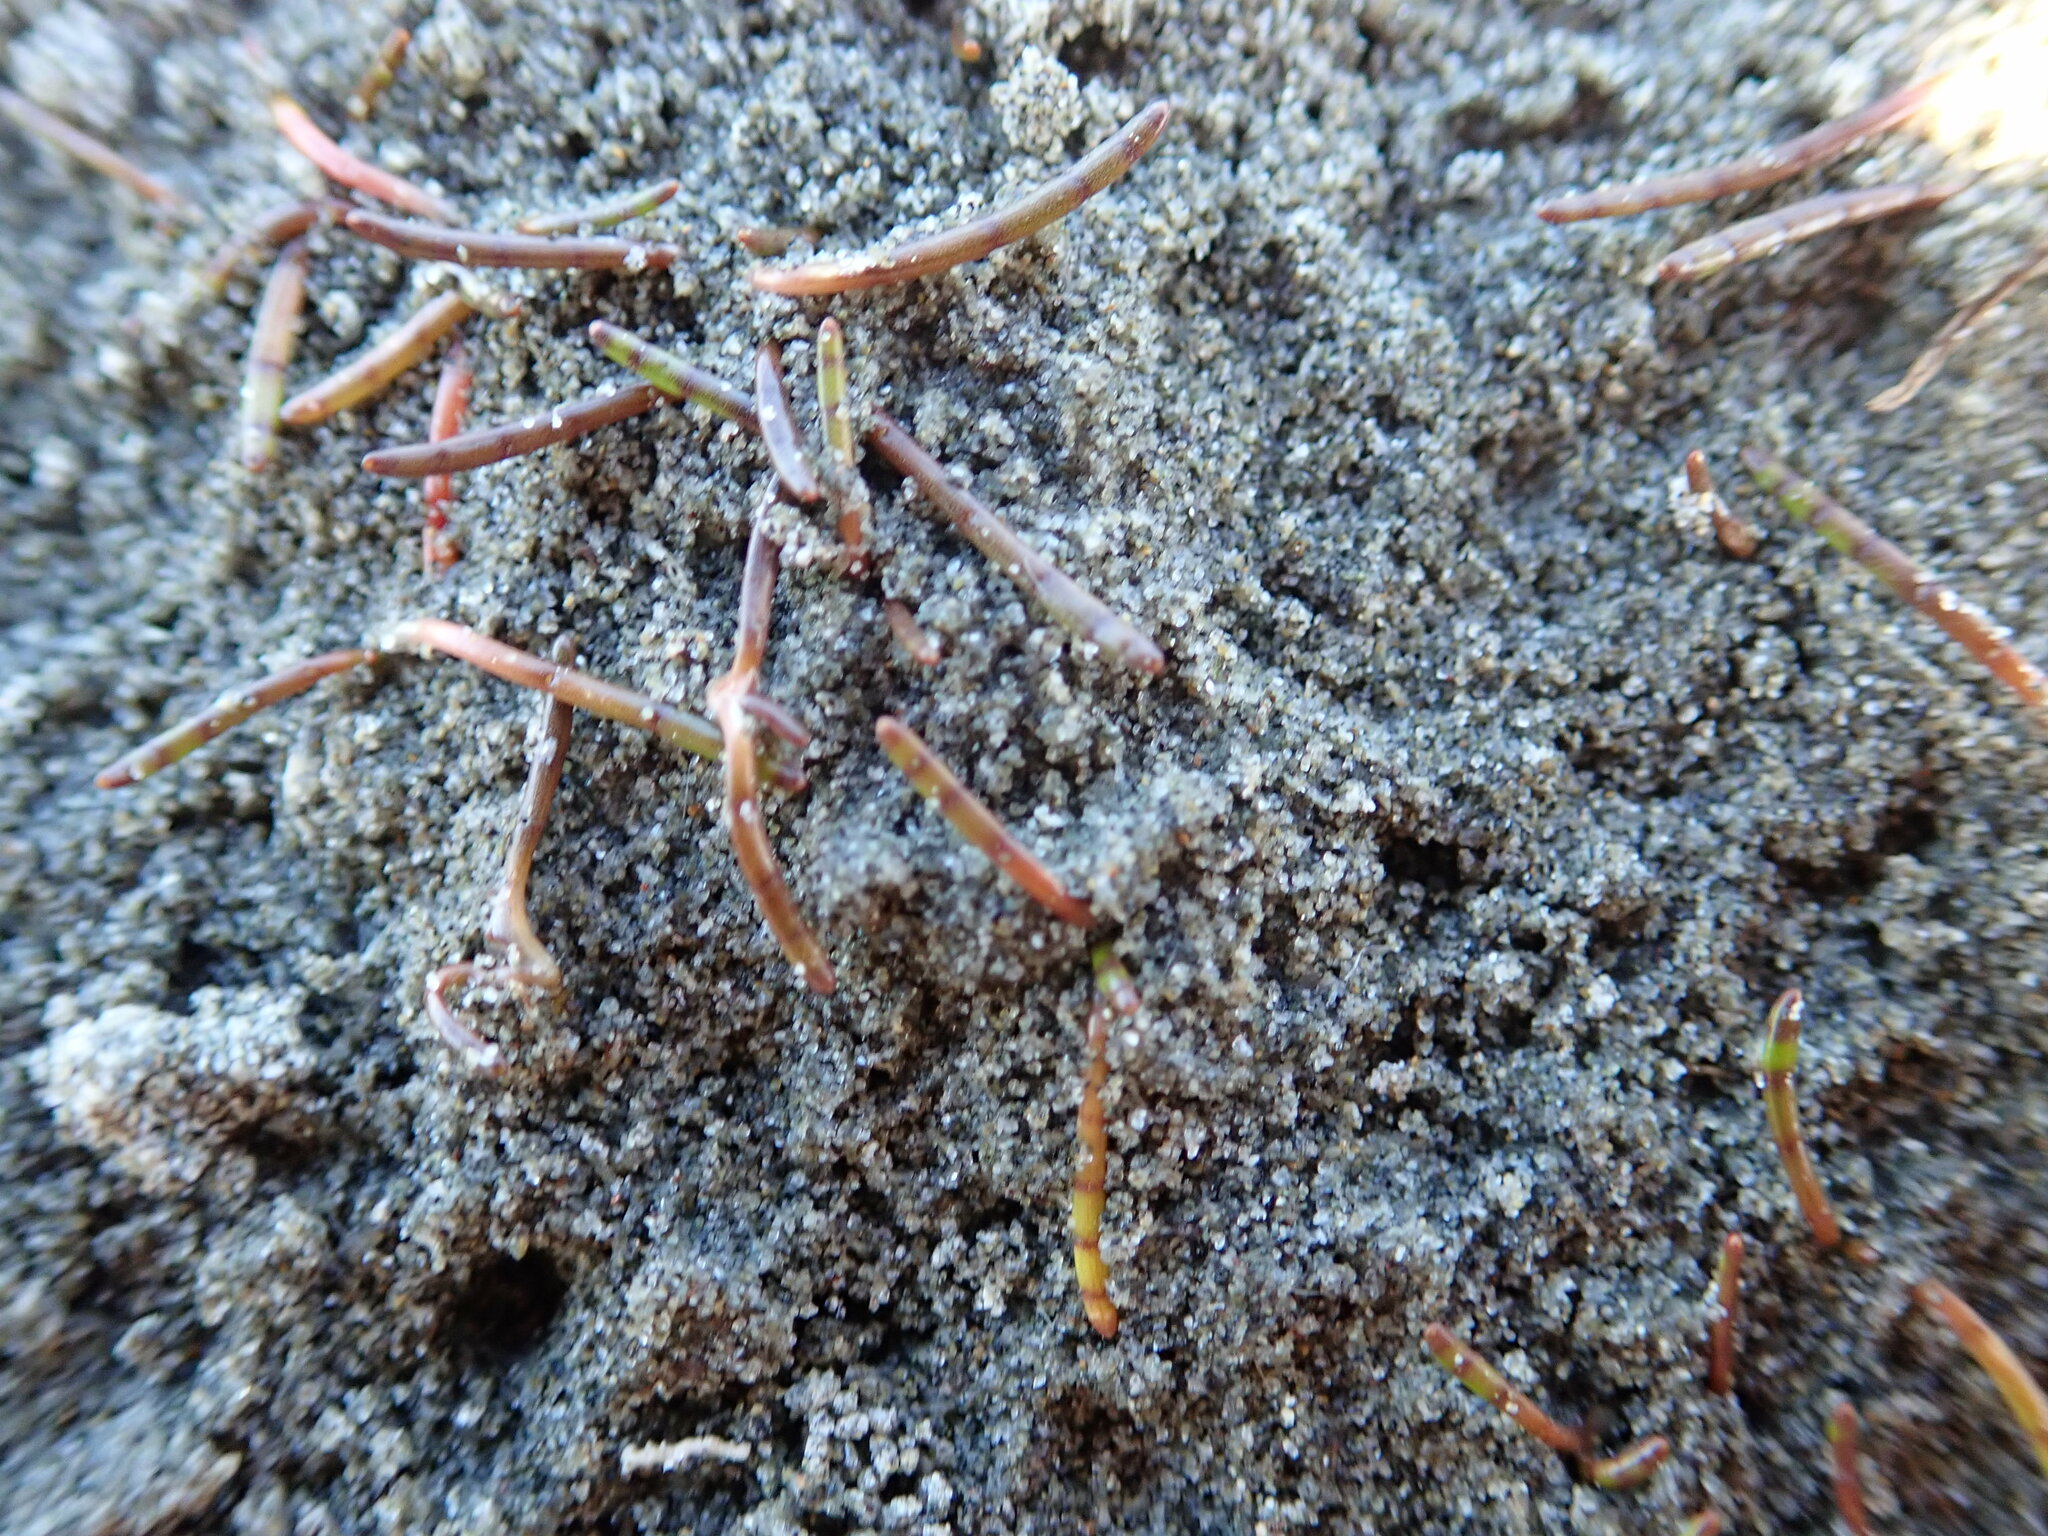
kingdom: Plantae
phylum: Tracheophyta
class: Magnoliopsida
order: Apiales
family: Apiaceae
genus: Lilaeopsis
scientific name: Lilaeopsis novae-zelandiae
